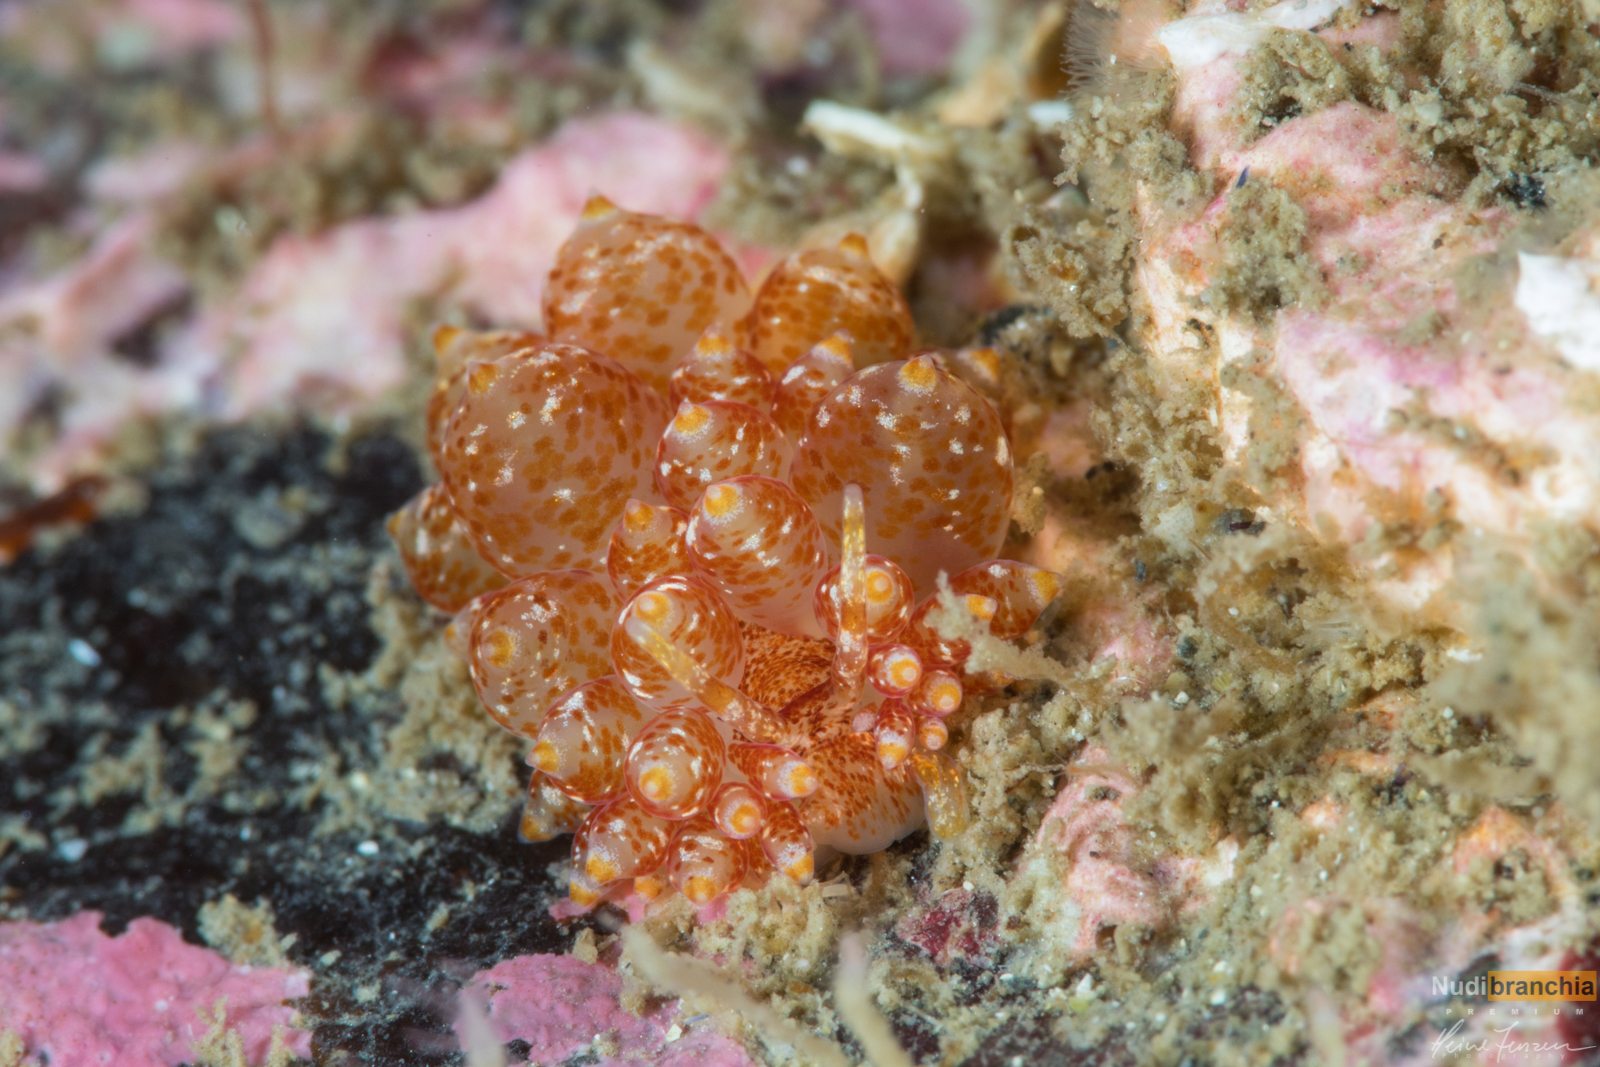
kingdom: Animalia
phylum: Mollusca
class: Gastropoda
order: Nudibranchia
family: Eubranchidae
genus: Amphorina
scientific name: Amphorina pallida
